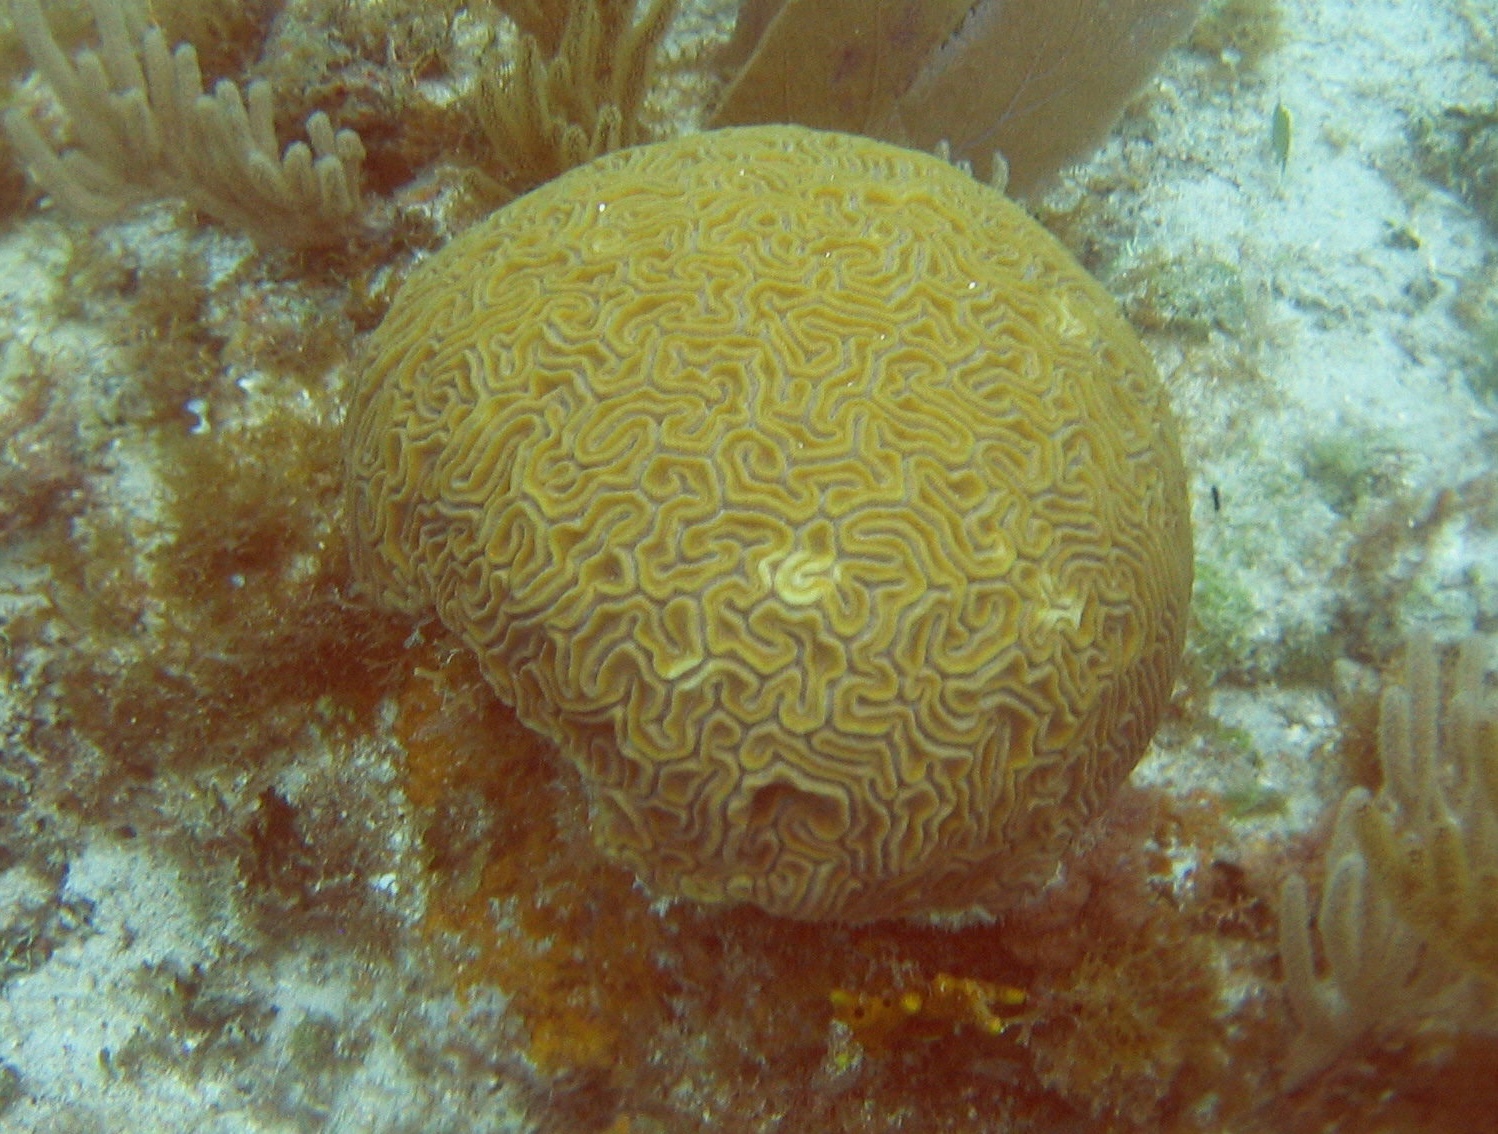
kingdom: Animalia
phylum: Cnidaria
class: Anthozoa
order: Scleractinia
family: Faviidae
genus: Diploria
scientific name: Diploria labyrinthiformis
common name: Grooved brain coral
